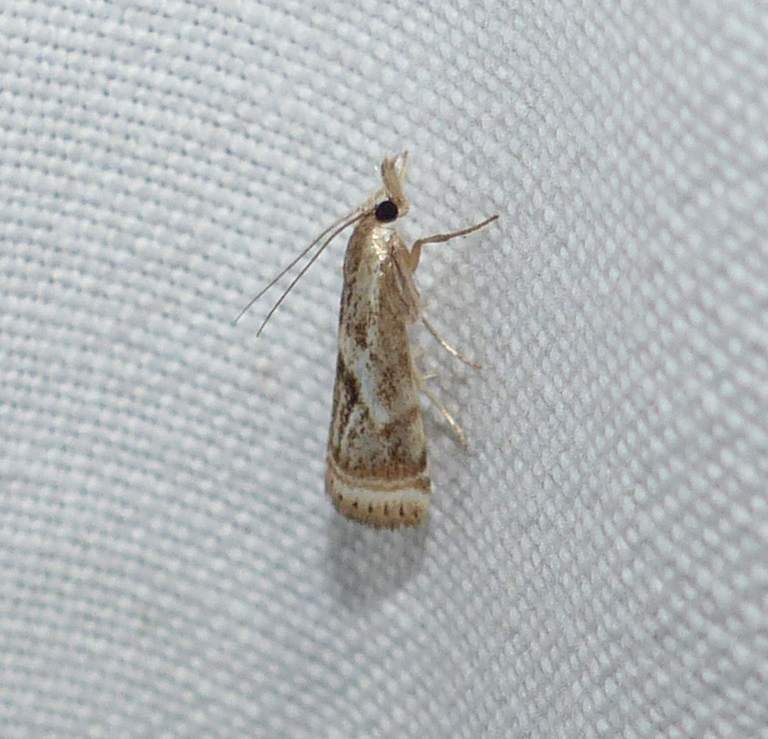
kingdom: Animalia
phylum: Arthropoda
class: Insecta
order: Lepidoptera
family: Crambidae
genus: Microcrambus
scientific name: Microcrambus elegans
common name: Elegant grass-veneer
